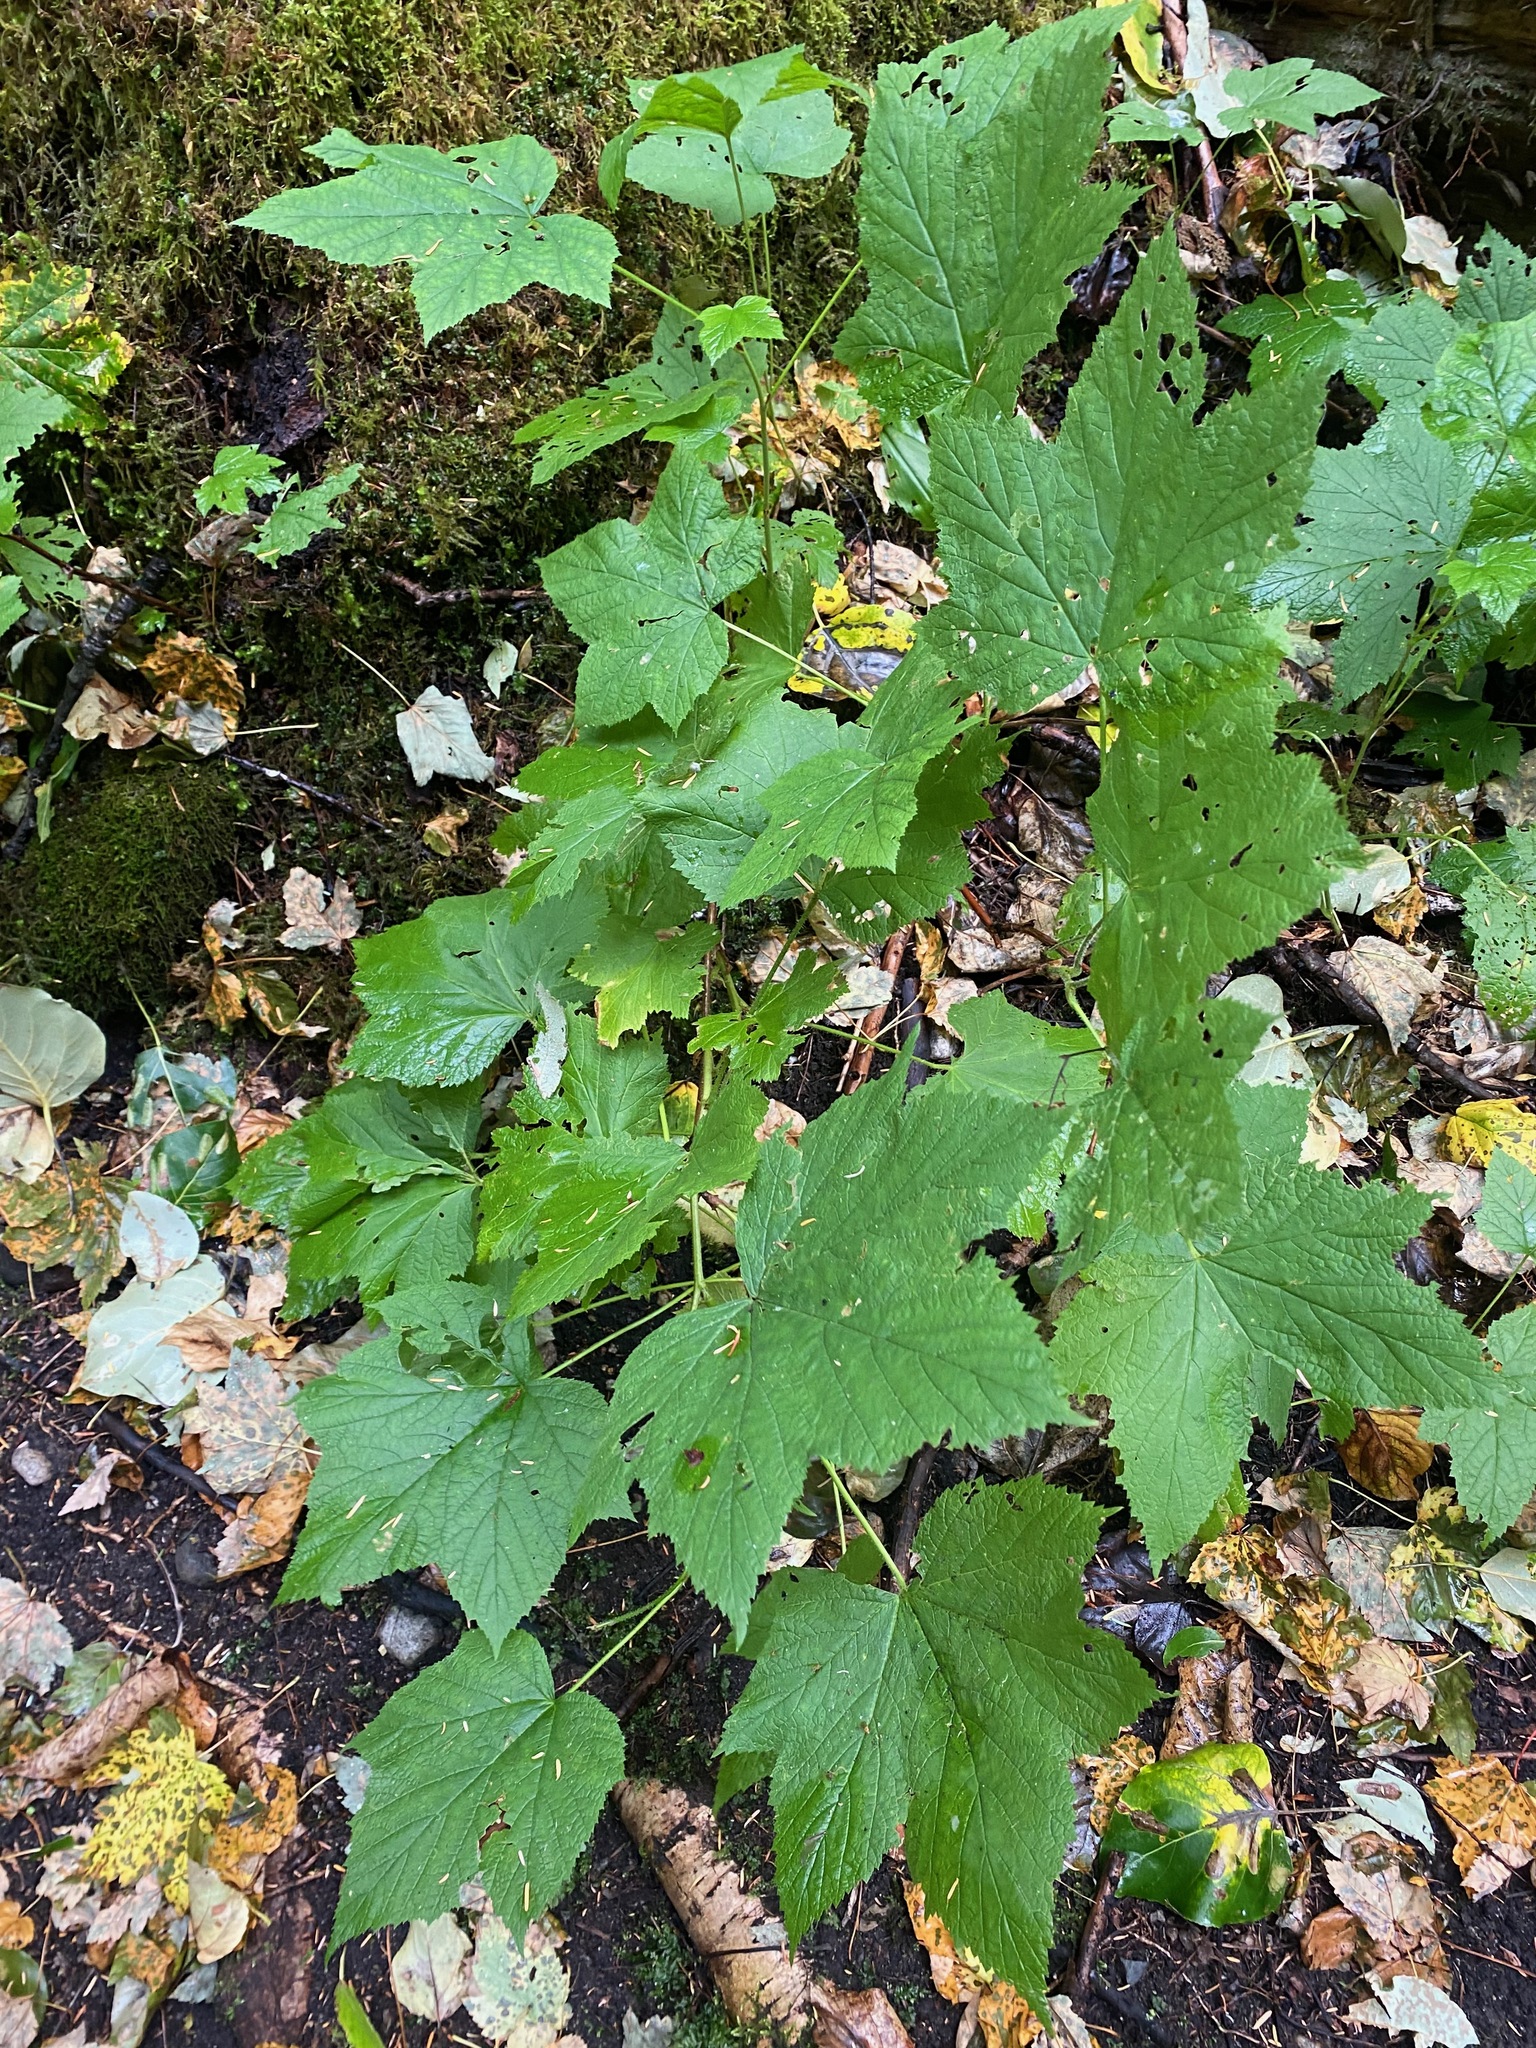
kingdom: Plantae
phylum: Tracheophyta
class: Magnoliopsida
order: Rosales
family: Rosaceae
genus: Rubus
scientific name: Rubus parviflorus
